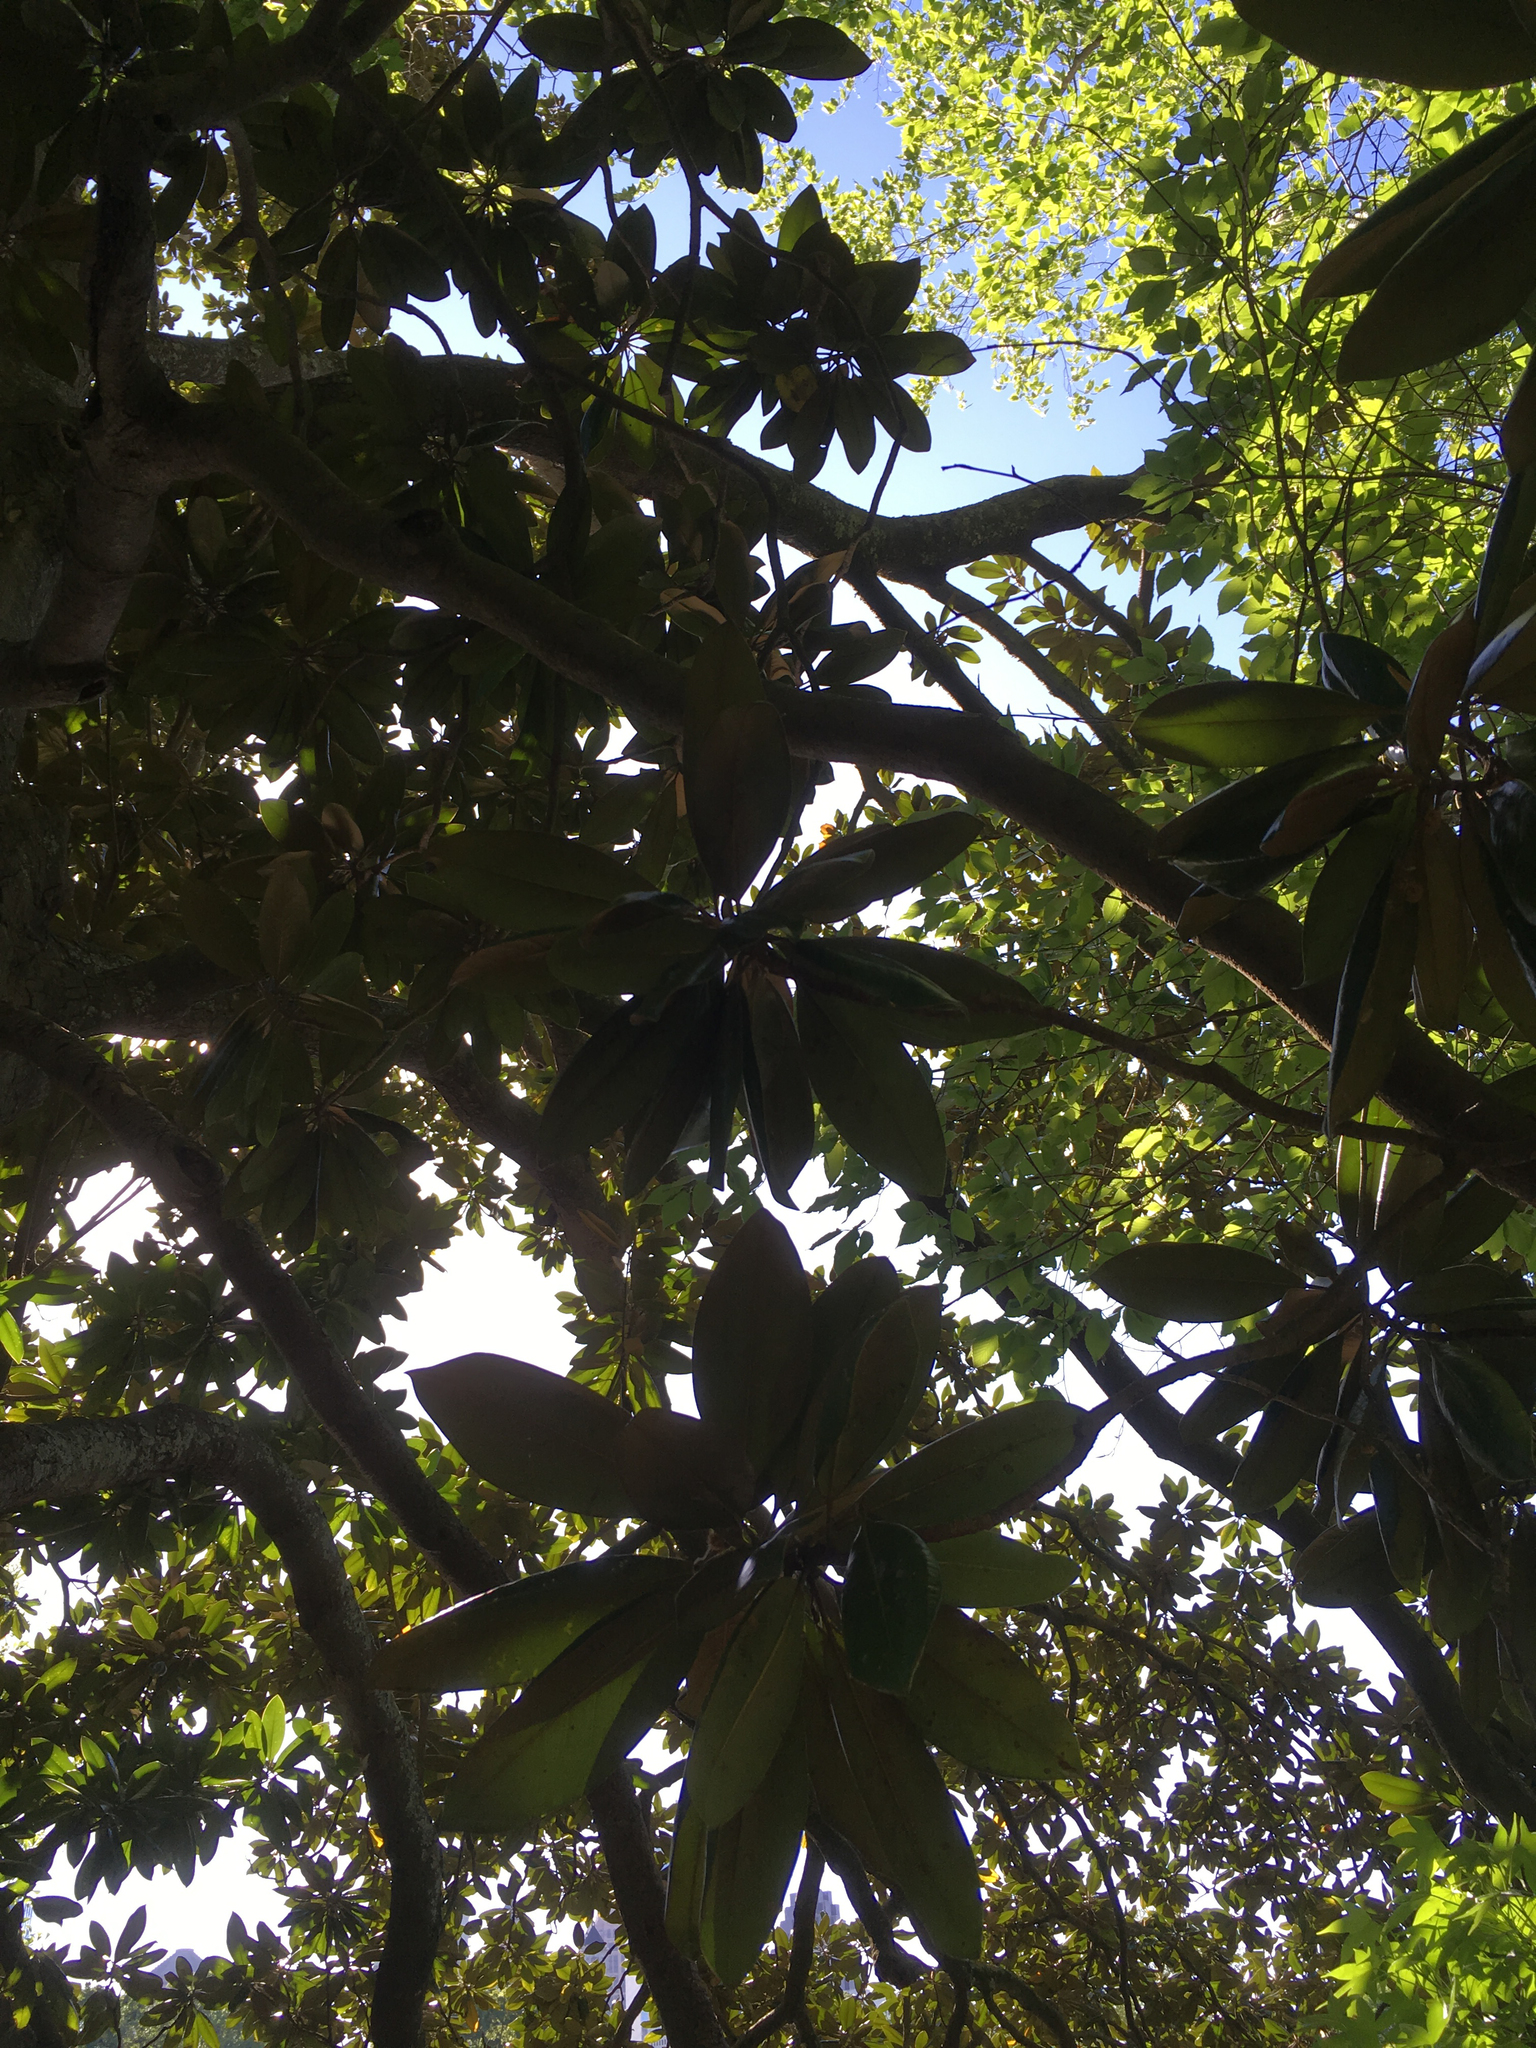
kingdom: Plantae
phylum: Tracheophyta
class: Magnoliopsida
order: Magnoliales
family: Magnoliaceae
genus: Magnolia
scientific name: Magnolia grandiflora
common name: Southern magnolia
